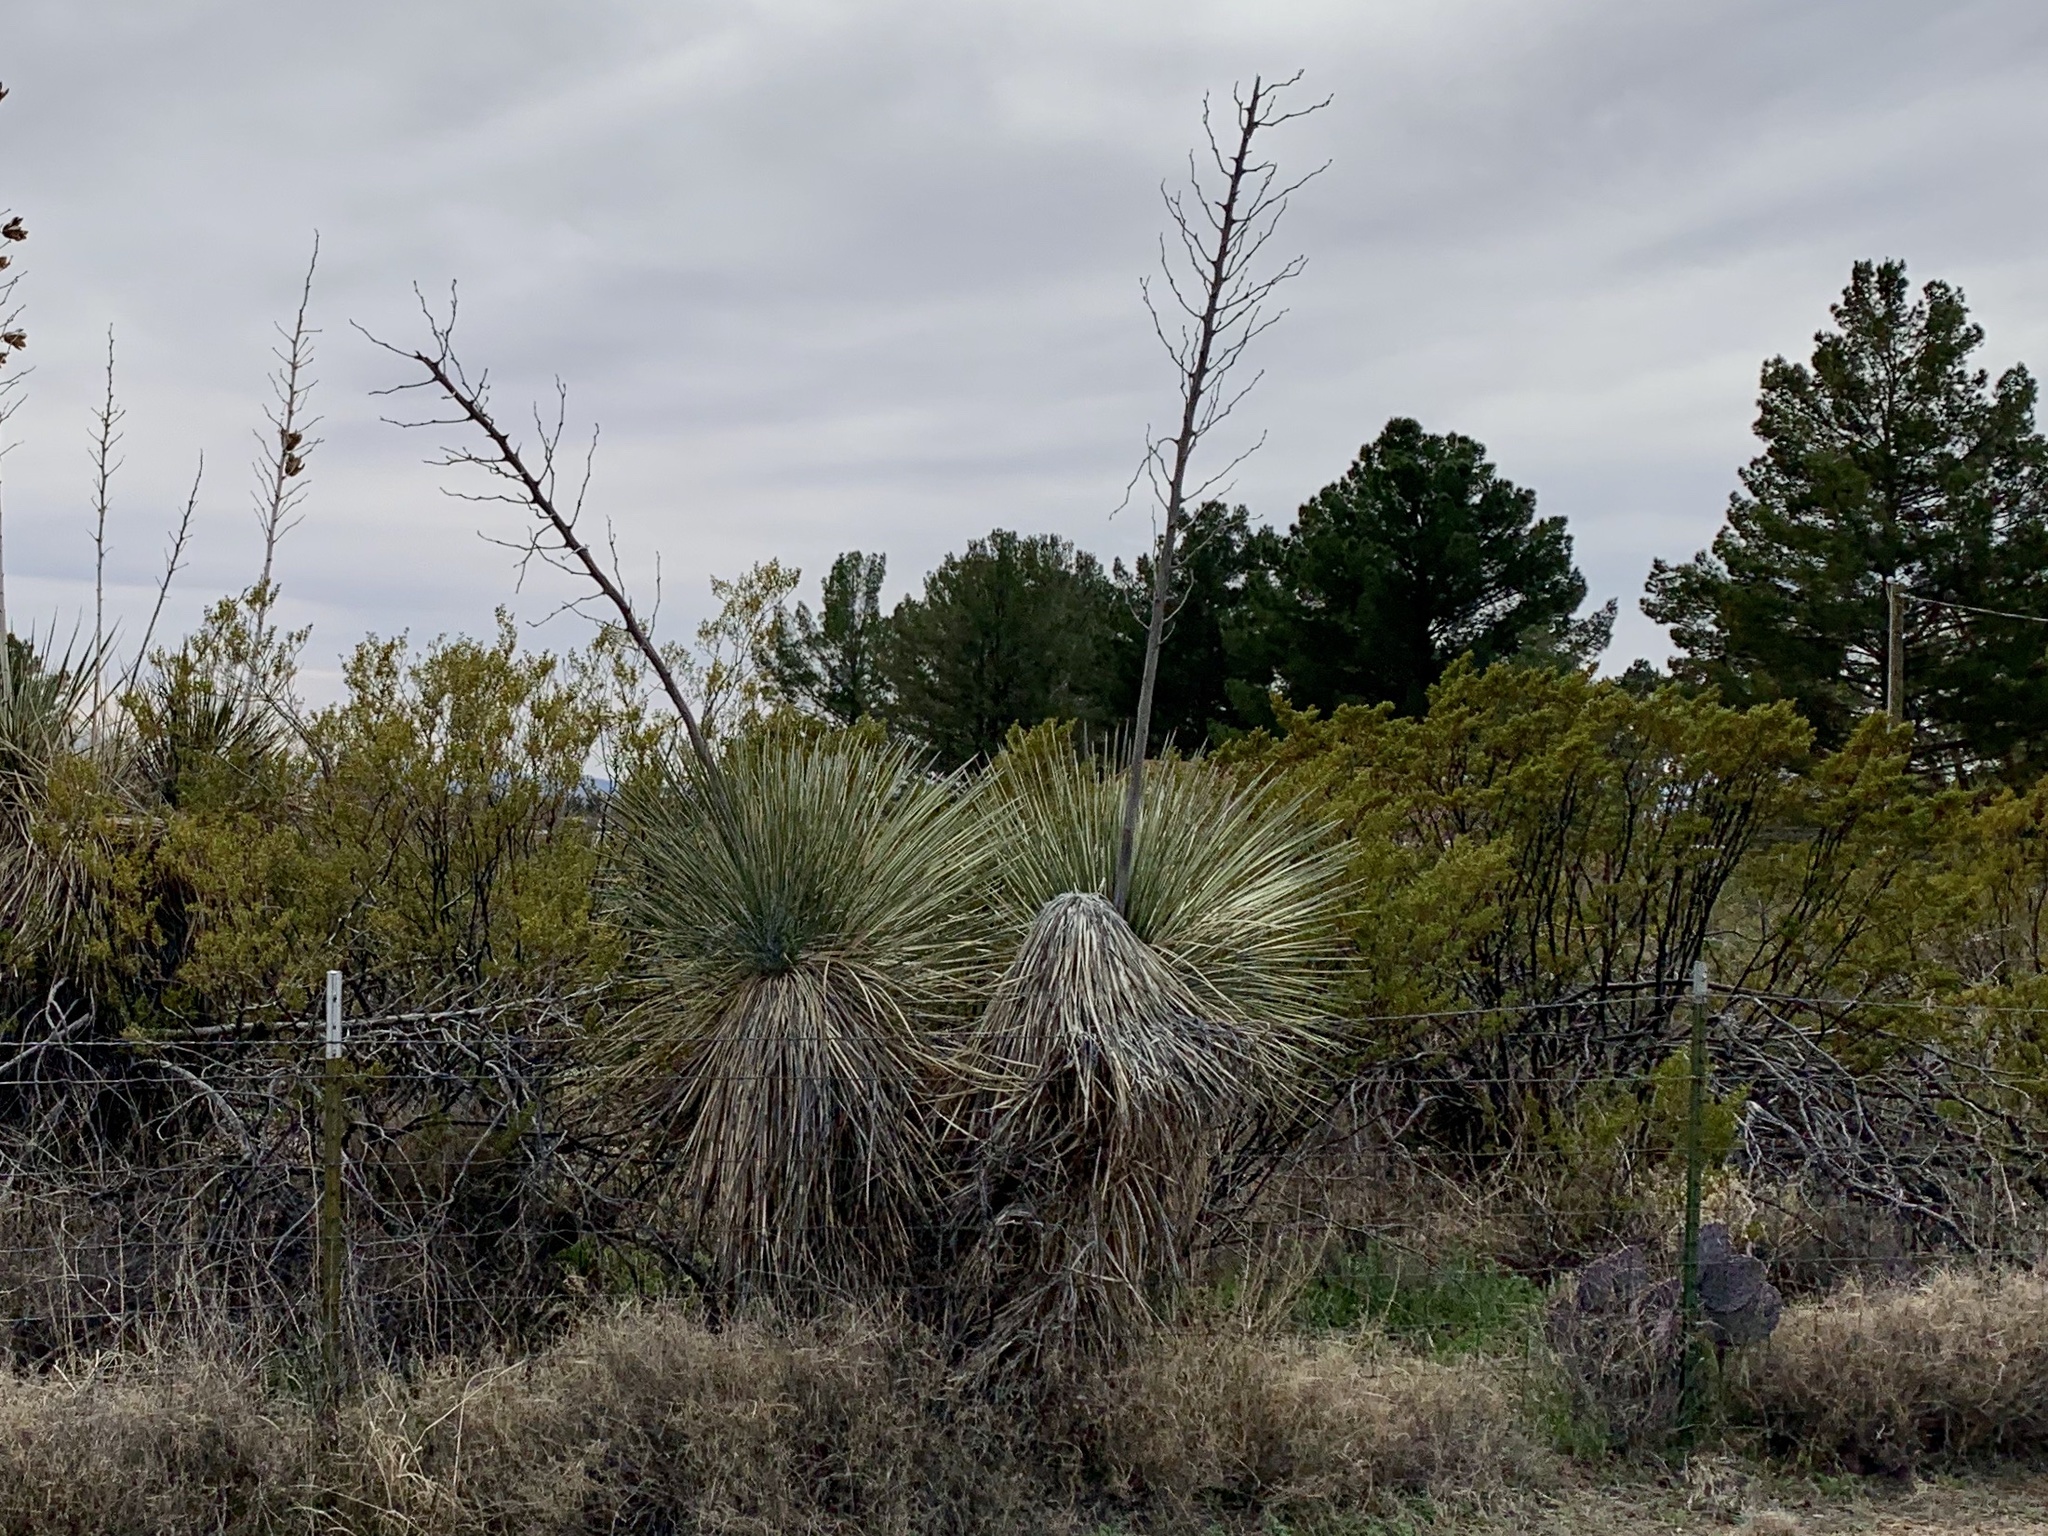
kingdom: Plantae
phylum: Tracheophyta
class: Liliopsida
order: Asparagales
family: Asparagaceae
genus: Yucca
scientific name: Yucca elata
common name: Palmella
